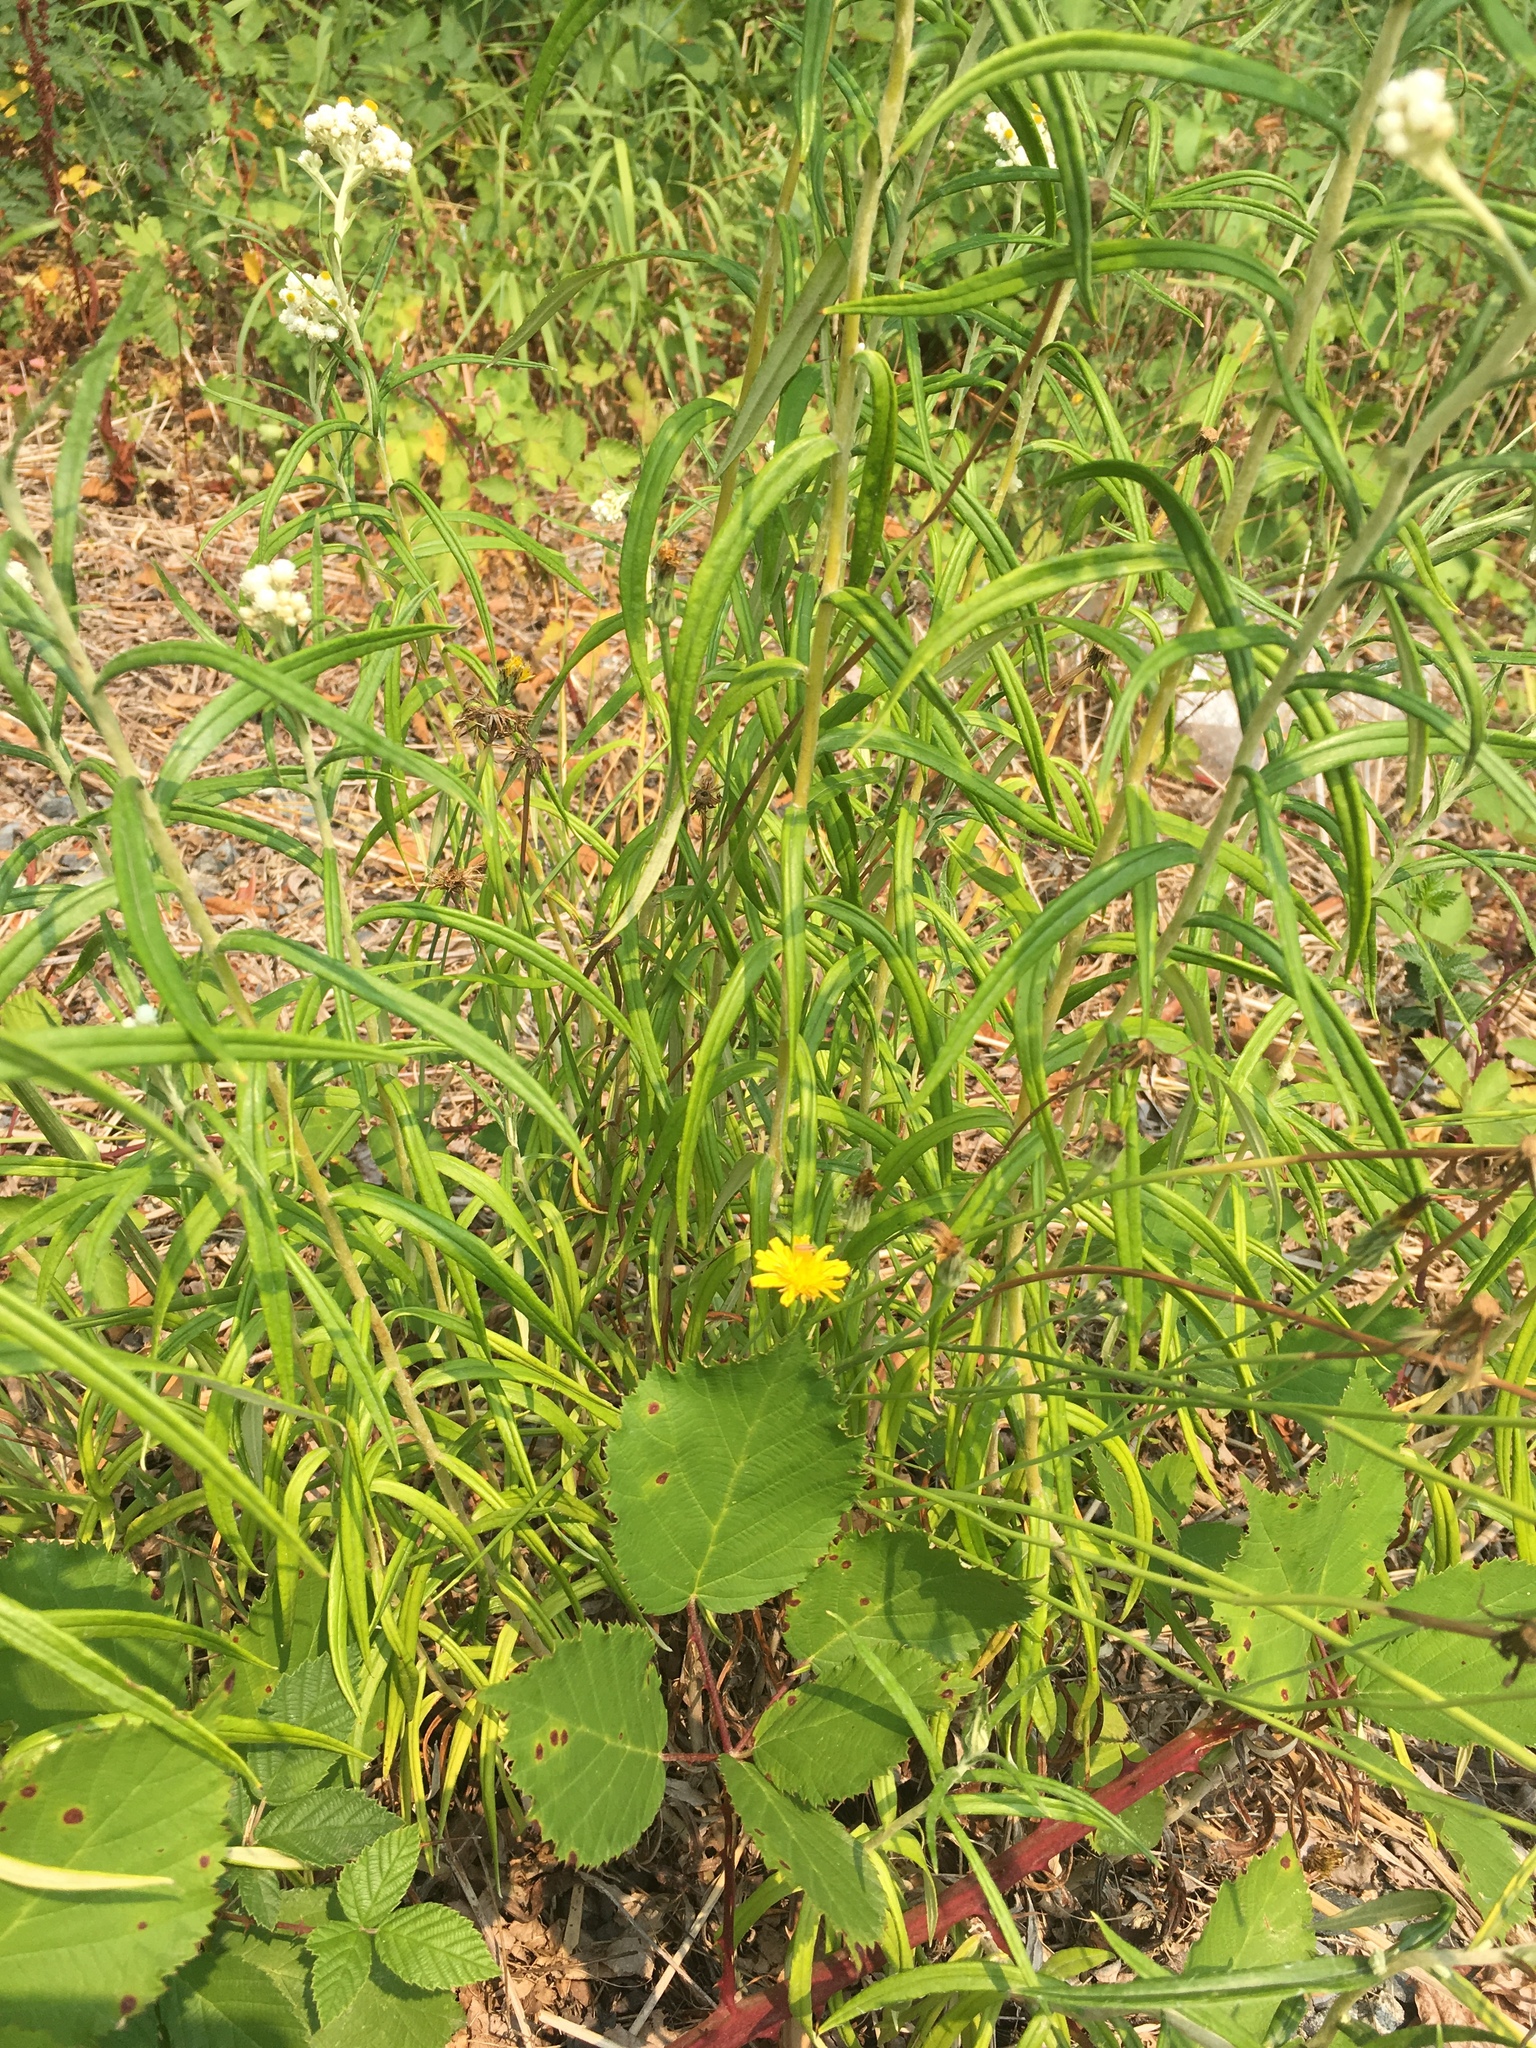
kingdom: Plantae
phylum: Tracheophyta
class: Magnoliopsida
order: Asterales
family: Asteraceae
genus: Anaphalis
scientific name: Anaphalis margaritacea
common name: Pearly everlasting
